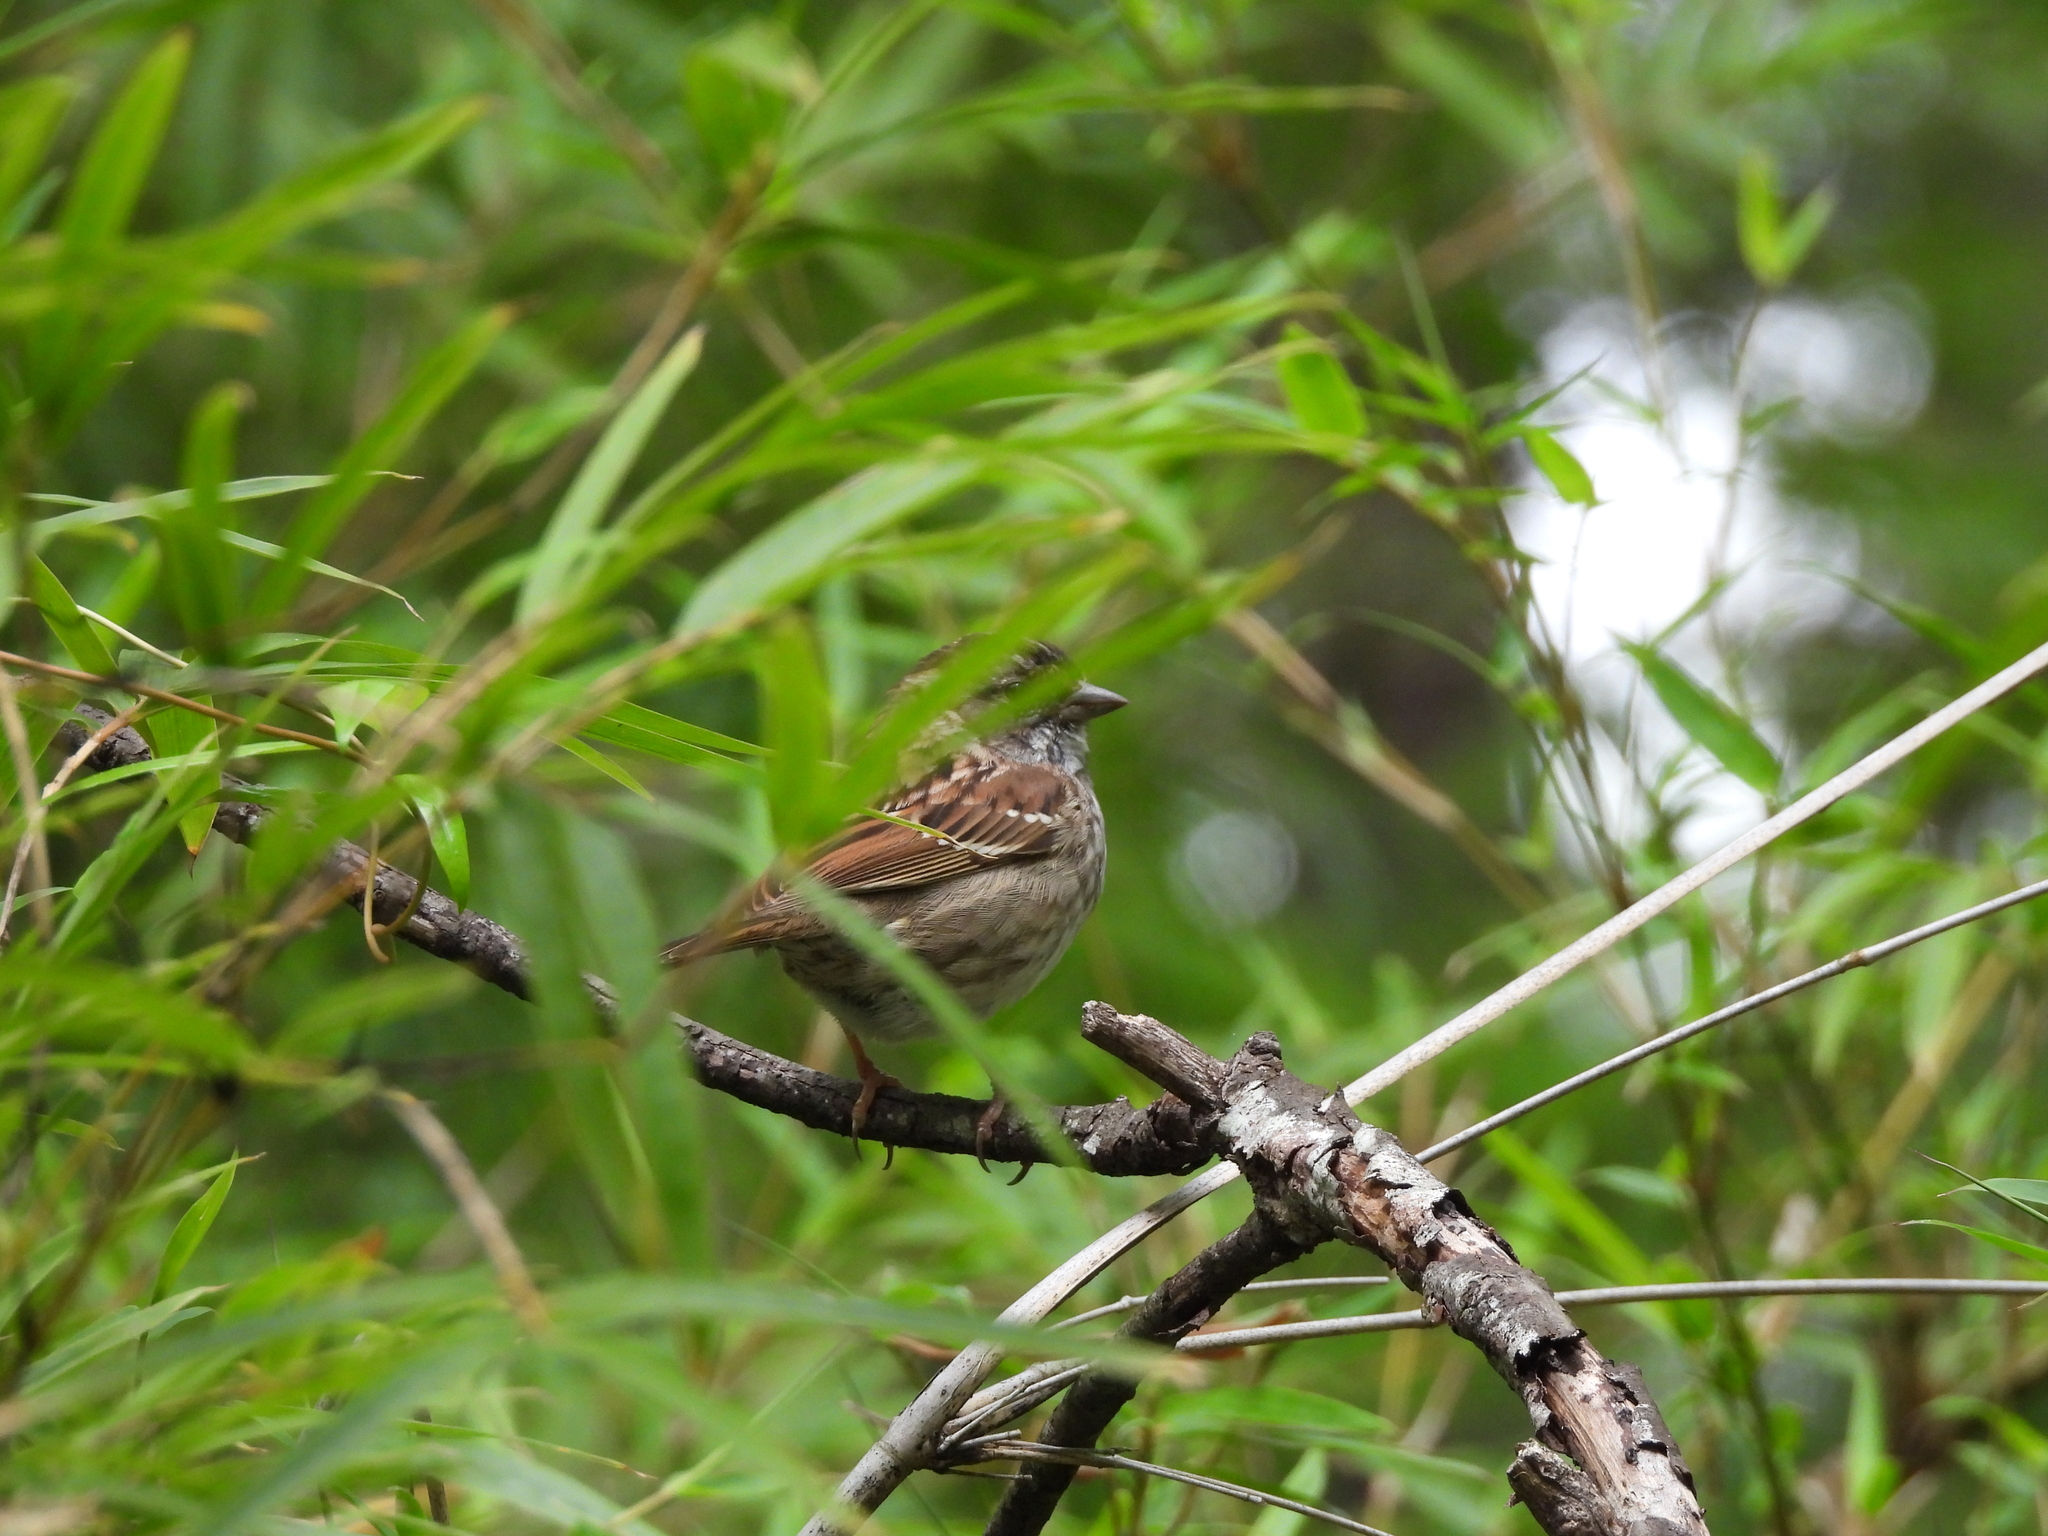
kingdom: Animalia
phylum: Chordata
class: Aves
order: Passeriformes
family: Passerellidae
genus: Zonotrichia
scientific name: Zonotrichia albicollis
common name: White-throated sparrow
